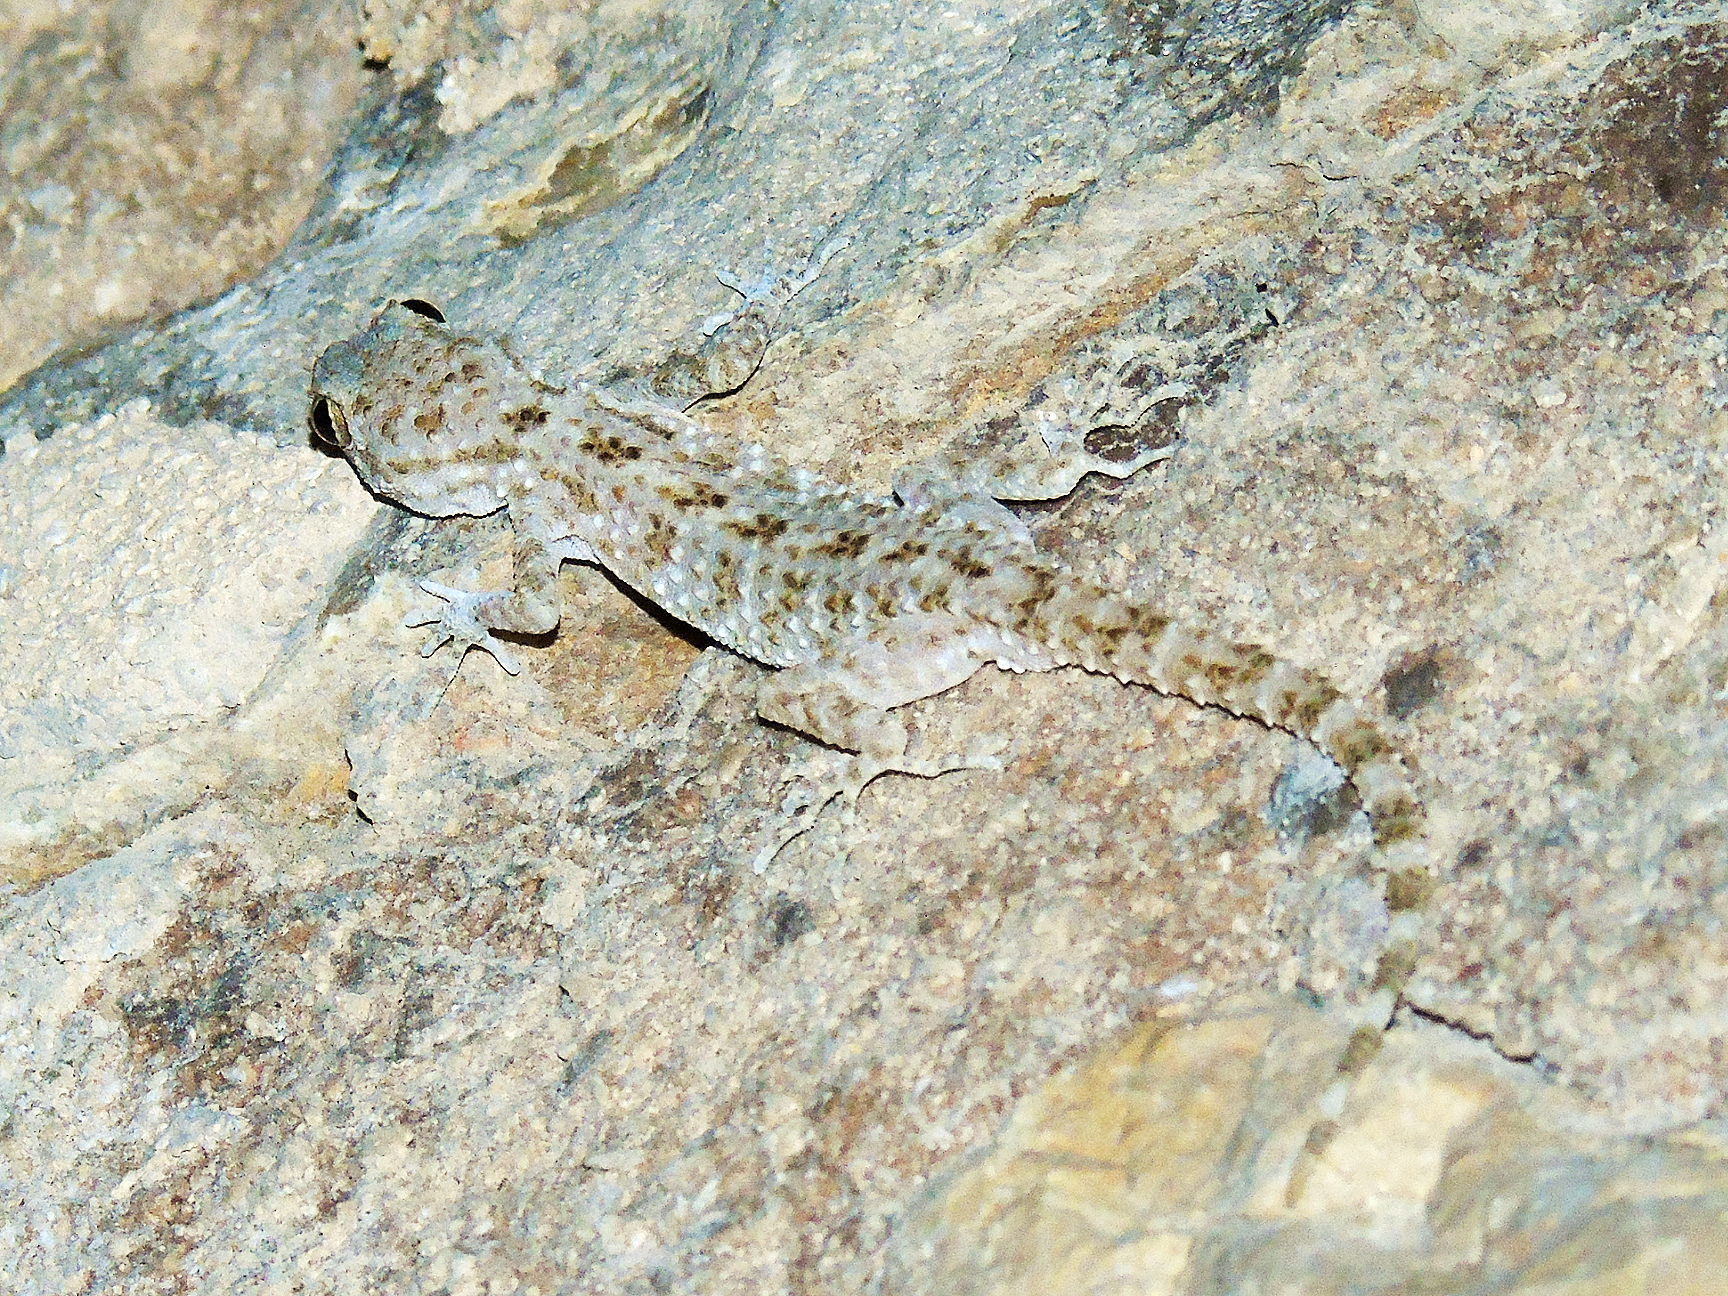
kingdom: Animalia
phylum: Chordata
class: Squamata
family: Gekkonidae
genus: Cyrtopodion
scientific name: Cyrtopodion scabrum
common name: Rough-tailed gecko
